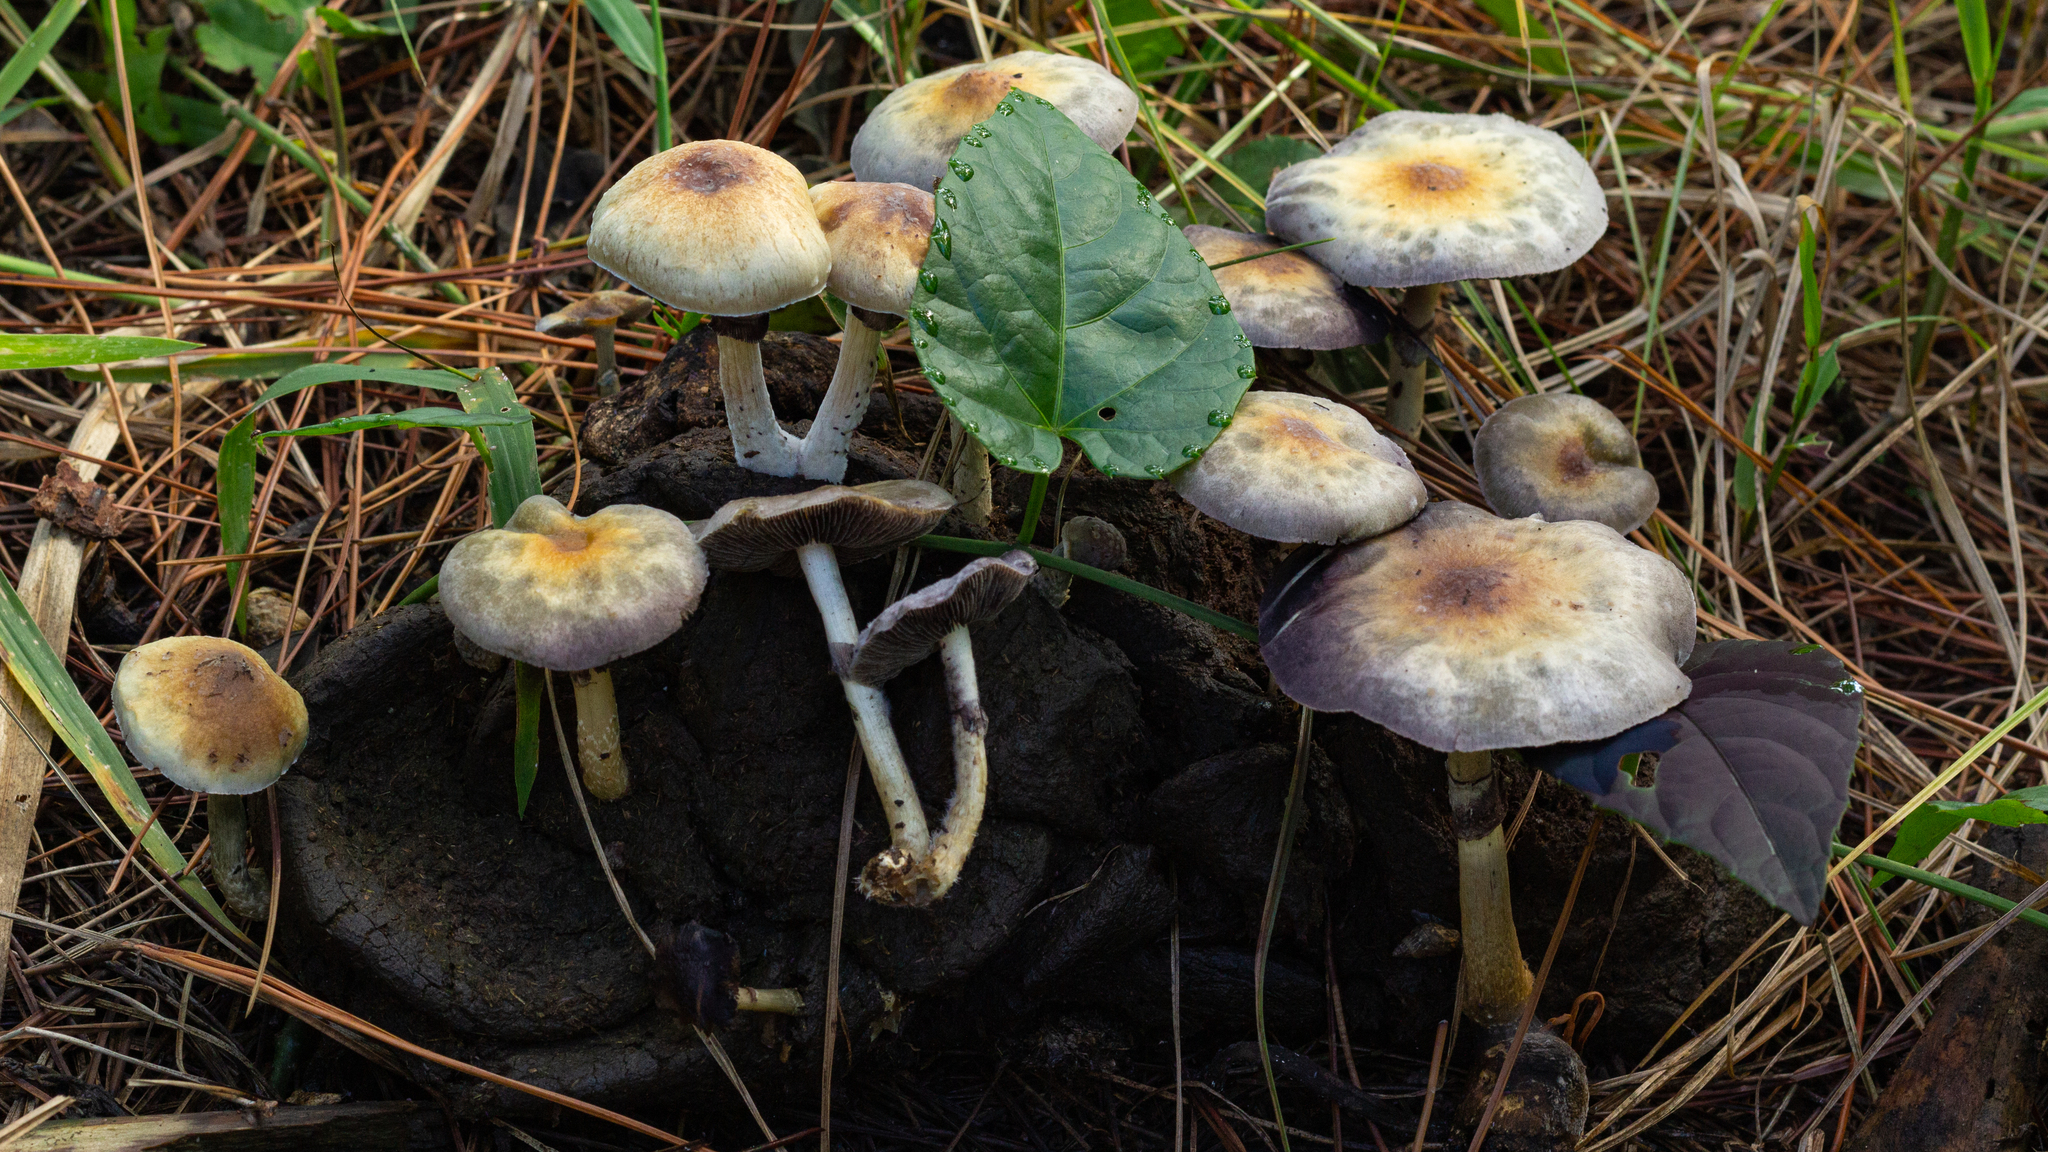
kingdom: Fungi
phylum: Basidiomycota
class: Agaricomycetes
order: Agaricales
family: Hymenogastraceae
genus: Psilocybe
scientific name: Psilocybe cubensis
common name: Golden brownie
